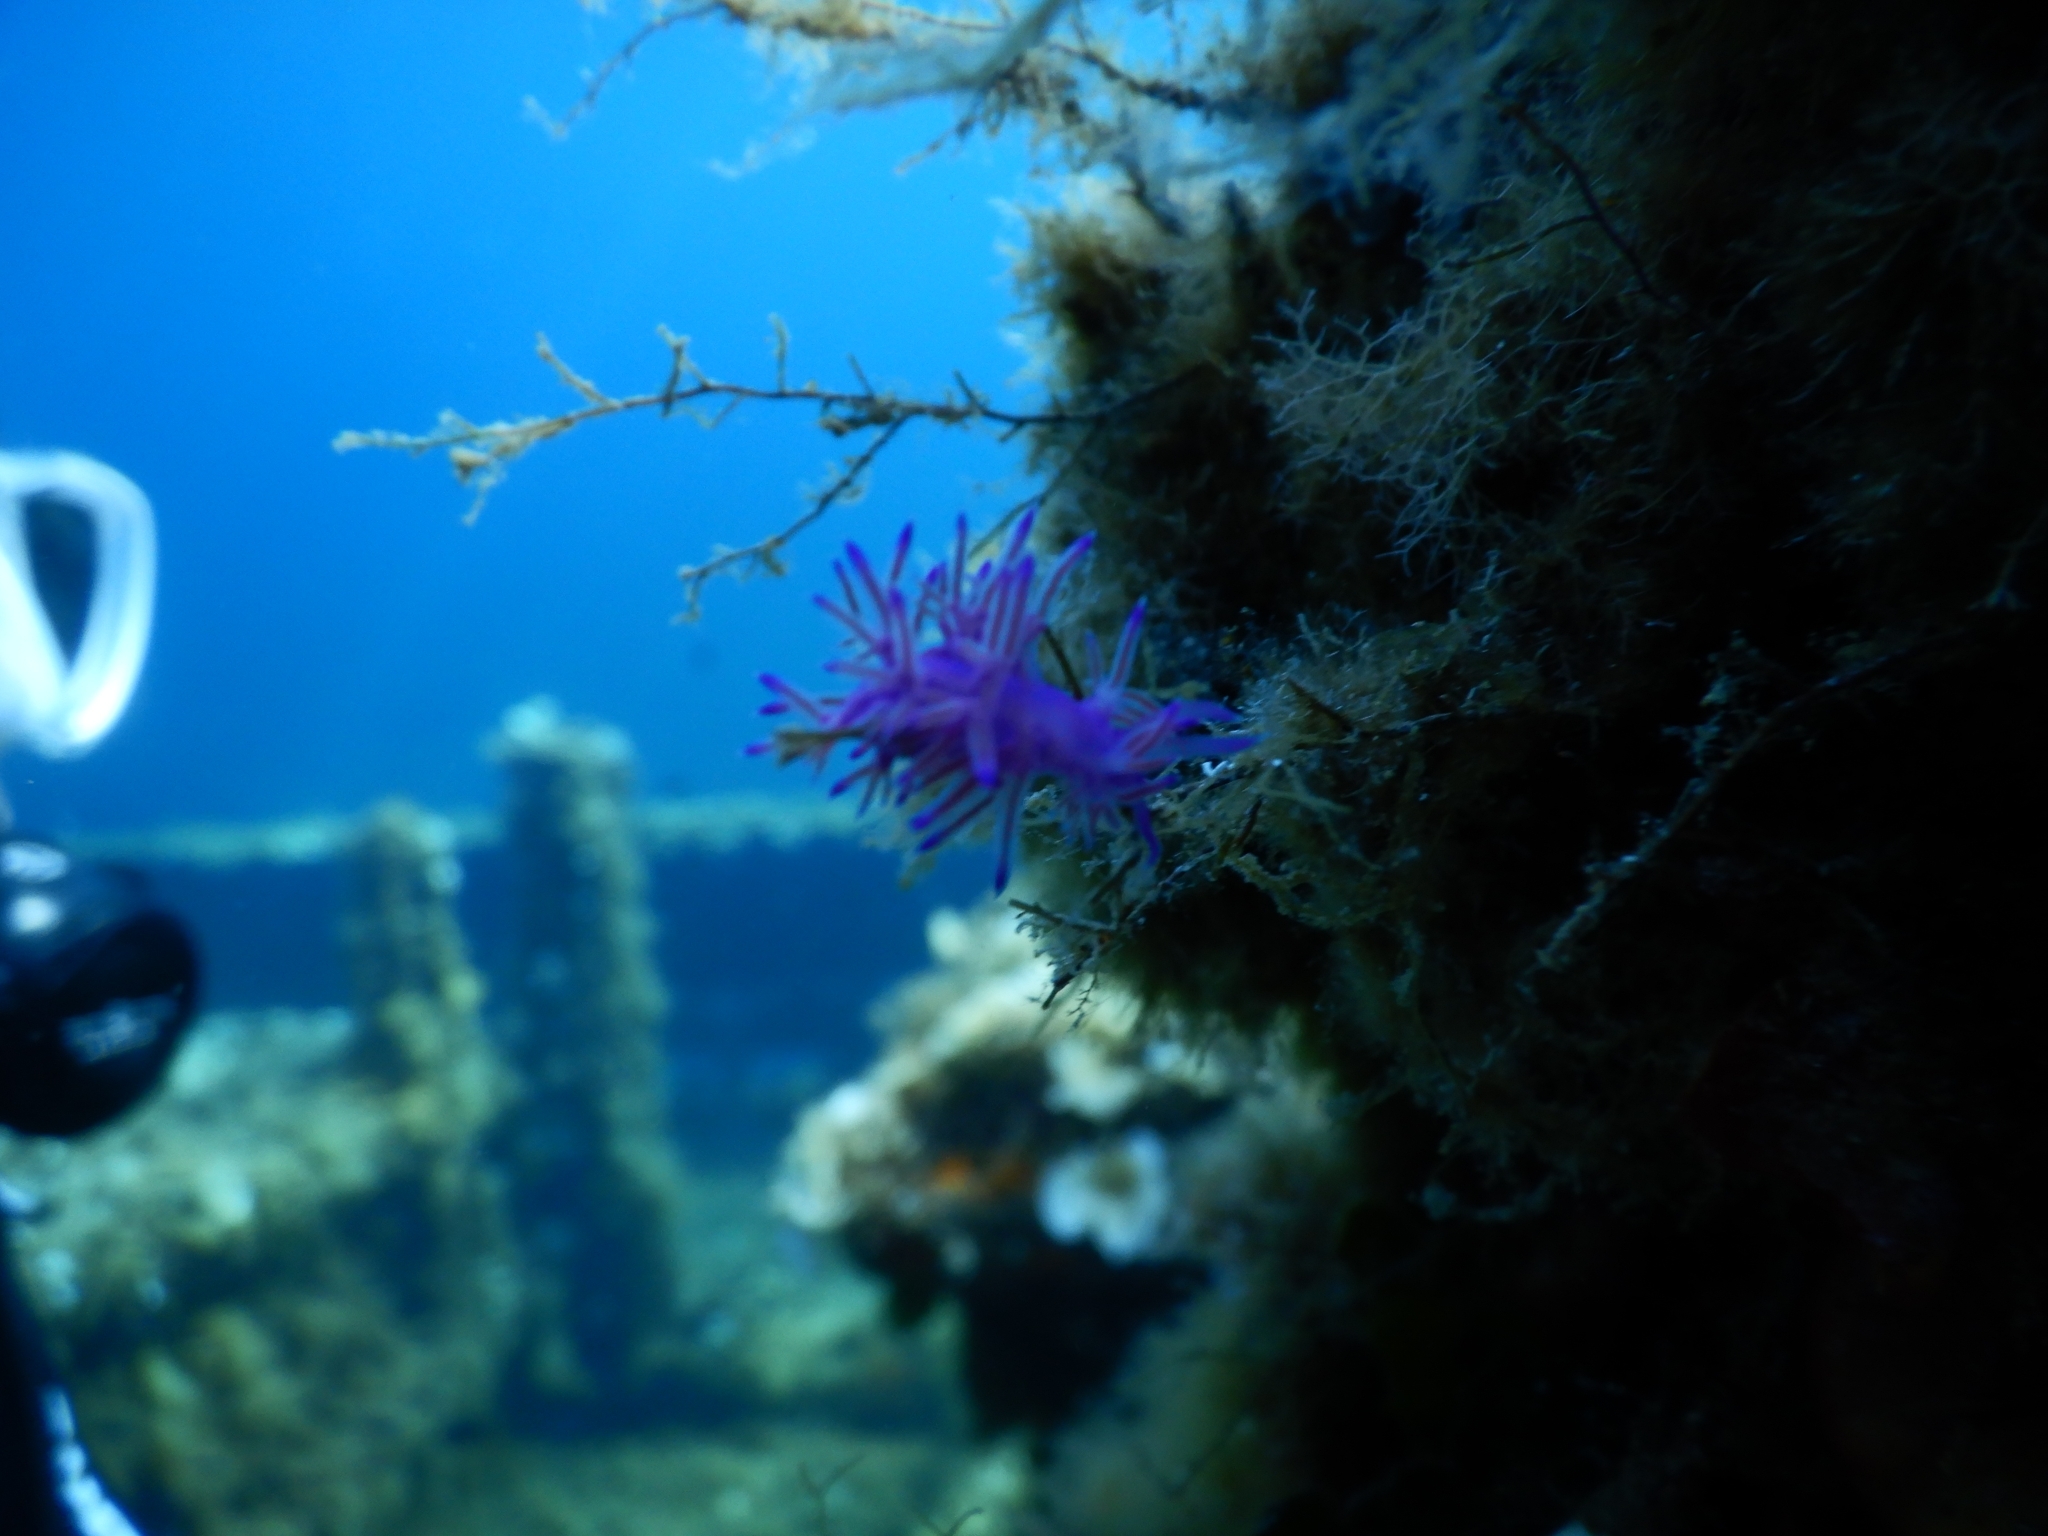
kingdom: Animalia
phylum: Mollusca
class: Gastropoda
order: Nudibranchia
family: Flabellinidae
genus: Flabellina
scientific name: Flabellina affinis
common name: Mediterranean violet aeolid
